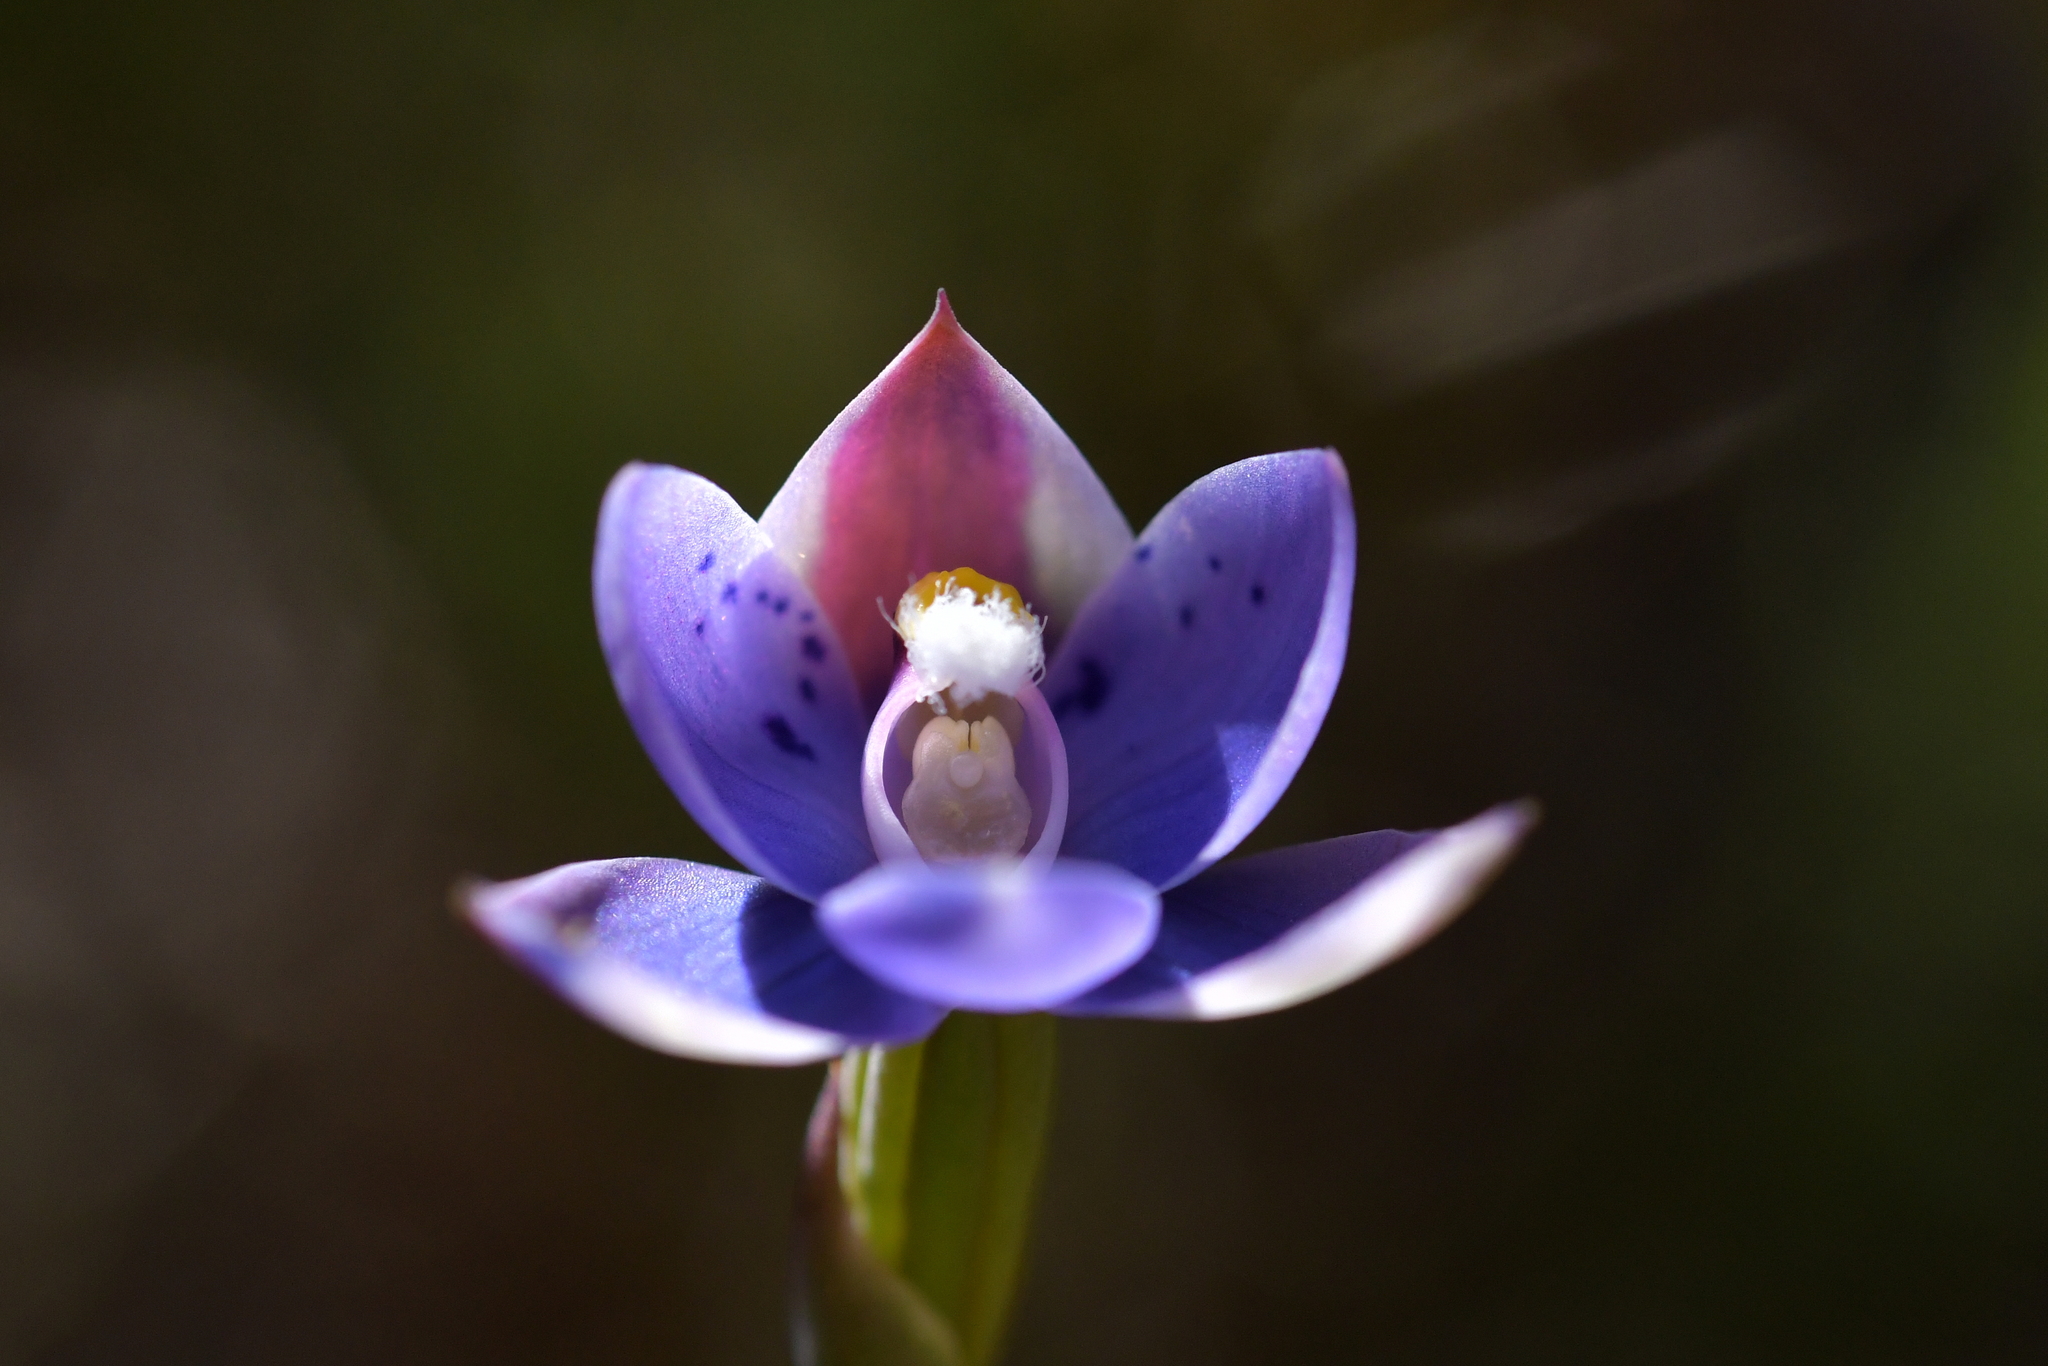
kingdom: Plantae
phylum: Tracheophyta
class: Liliopsida
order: Asparagales
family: Orchidaceae
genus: Thelymitra
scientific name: Thelymitra nervosa
